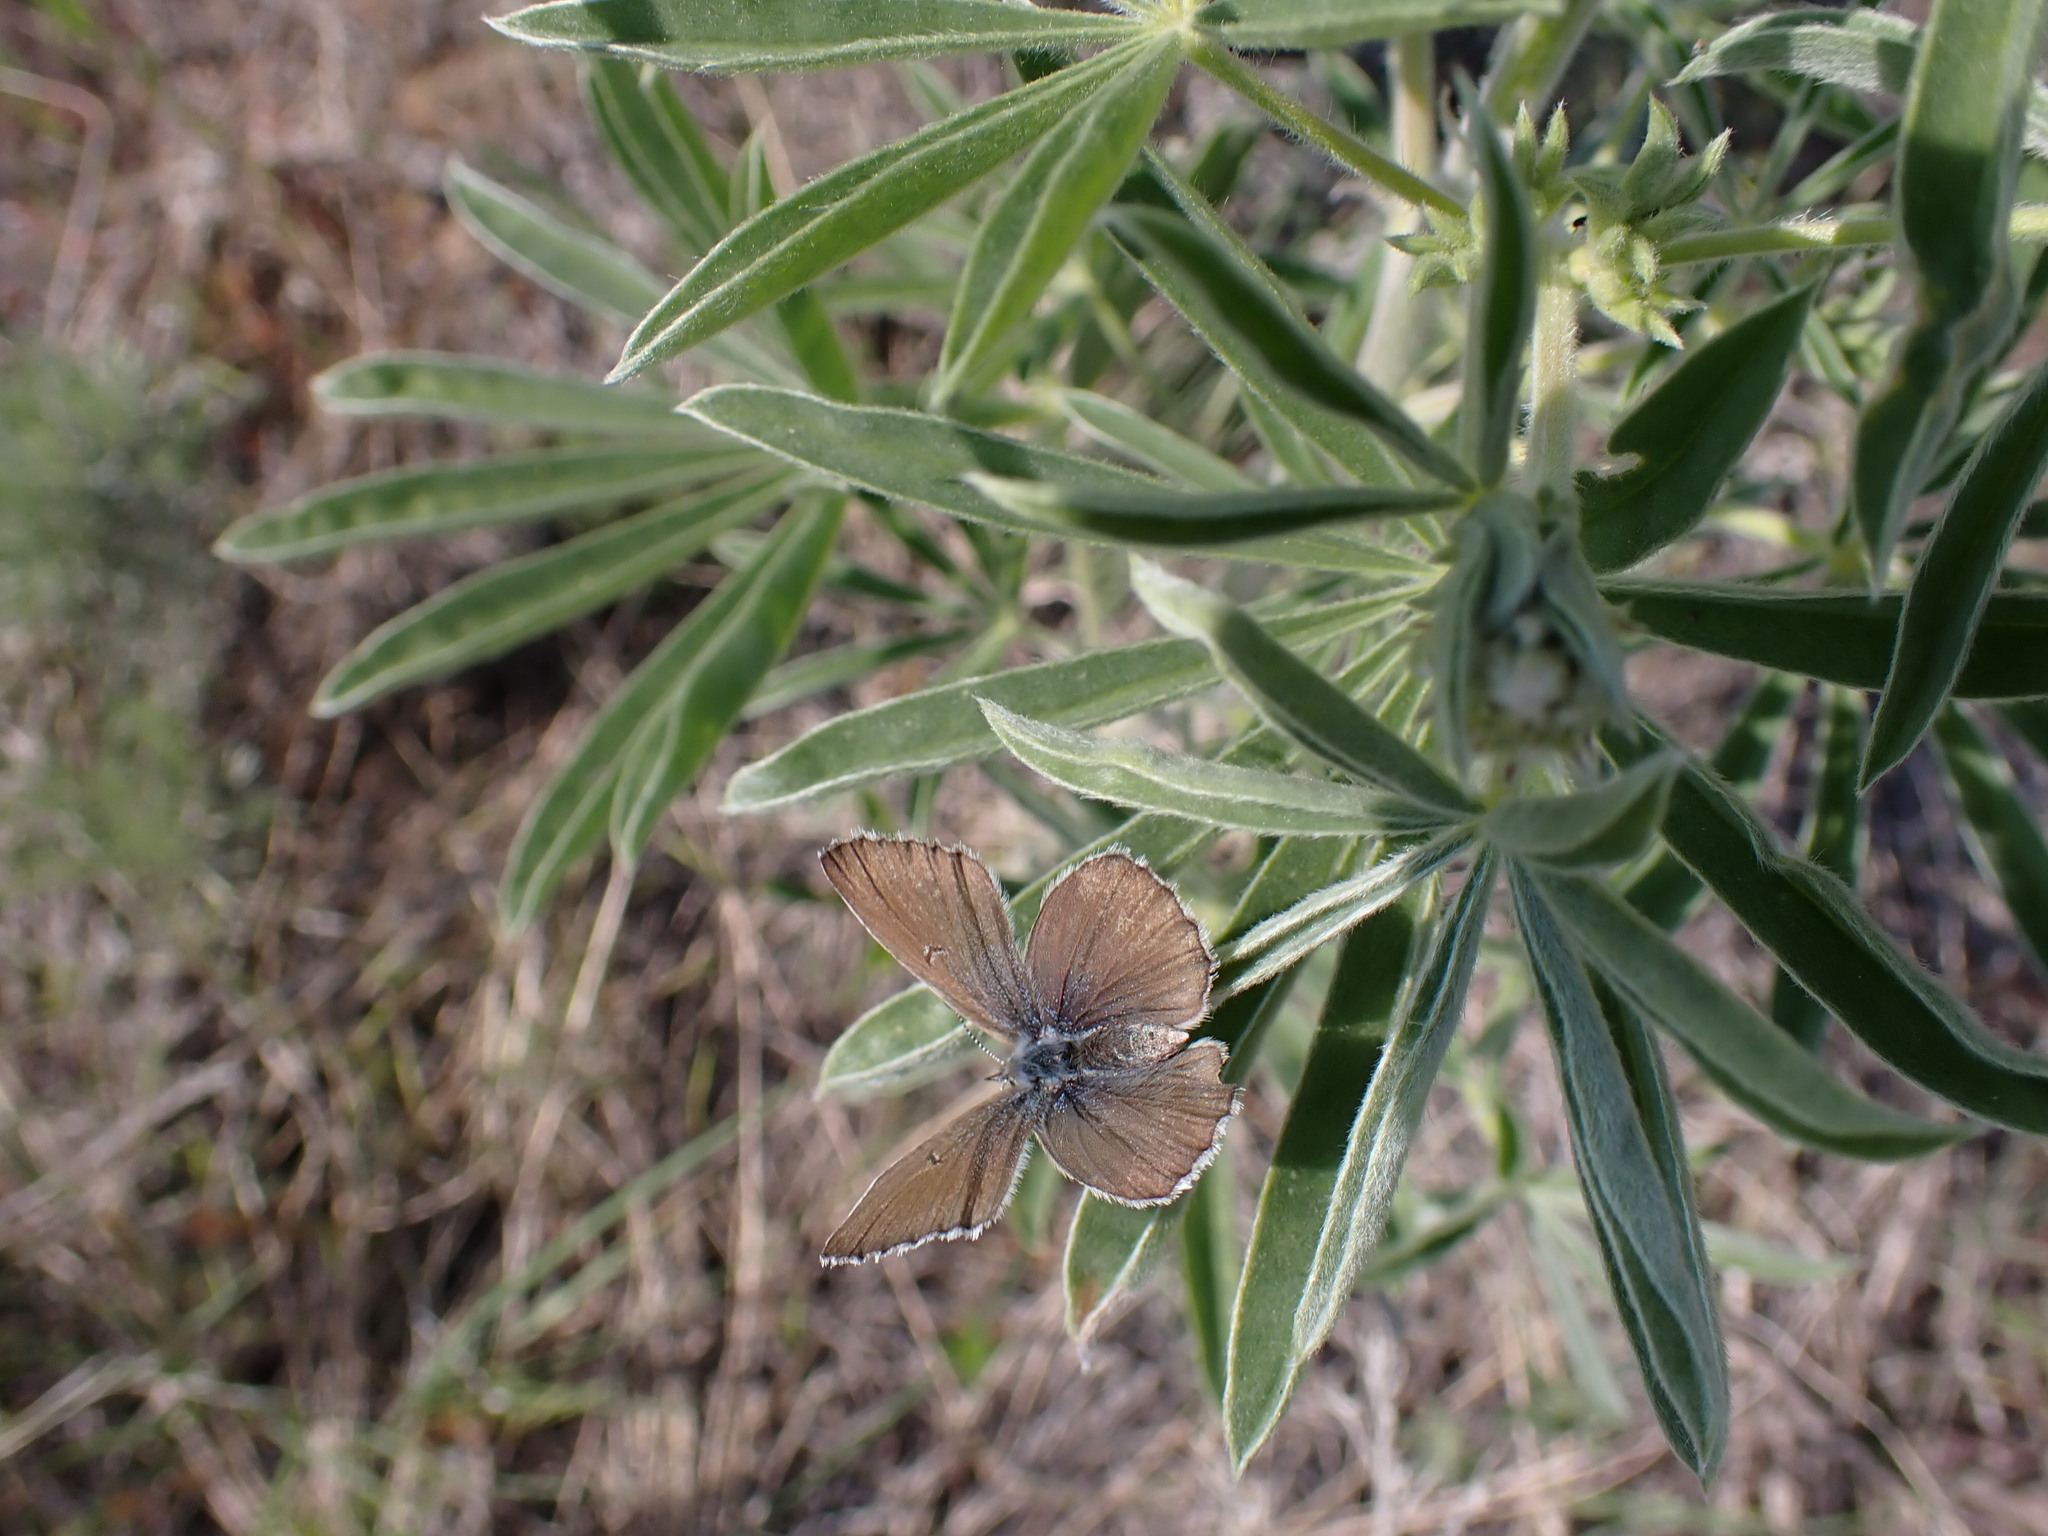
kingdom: Animalia
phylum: Arthropoda
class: Insecta
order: Lepidoptera
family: Lycaenidae
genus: Icaricia
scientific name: Icaricia icarioides
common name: Boisduval's blue
